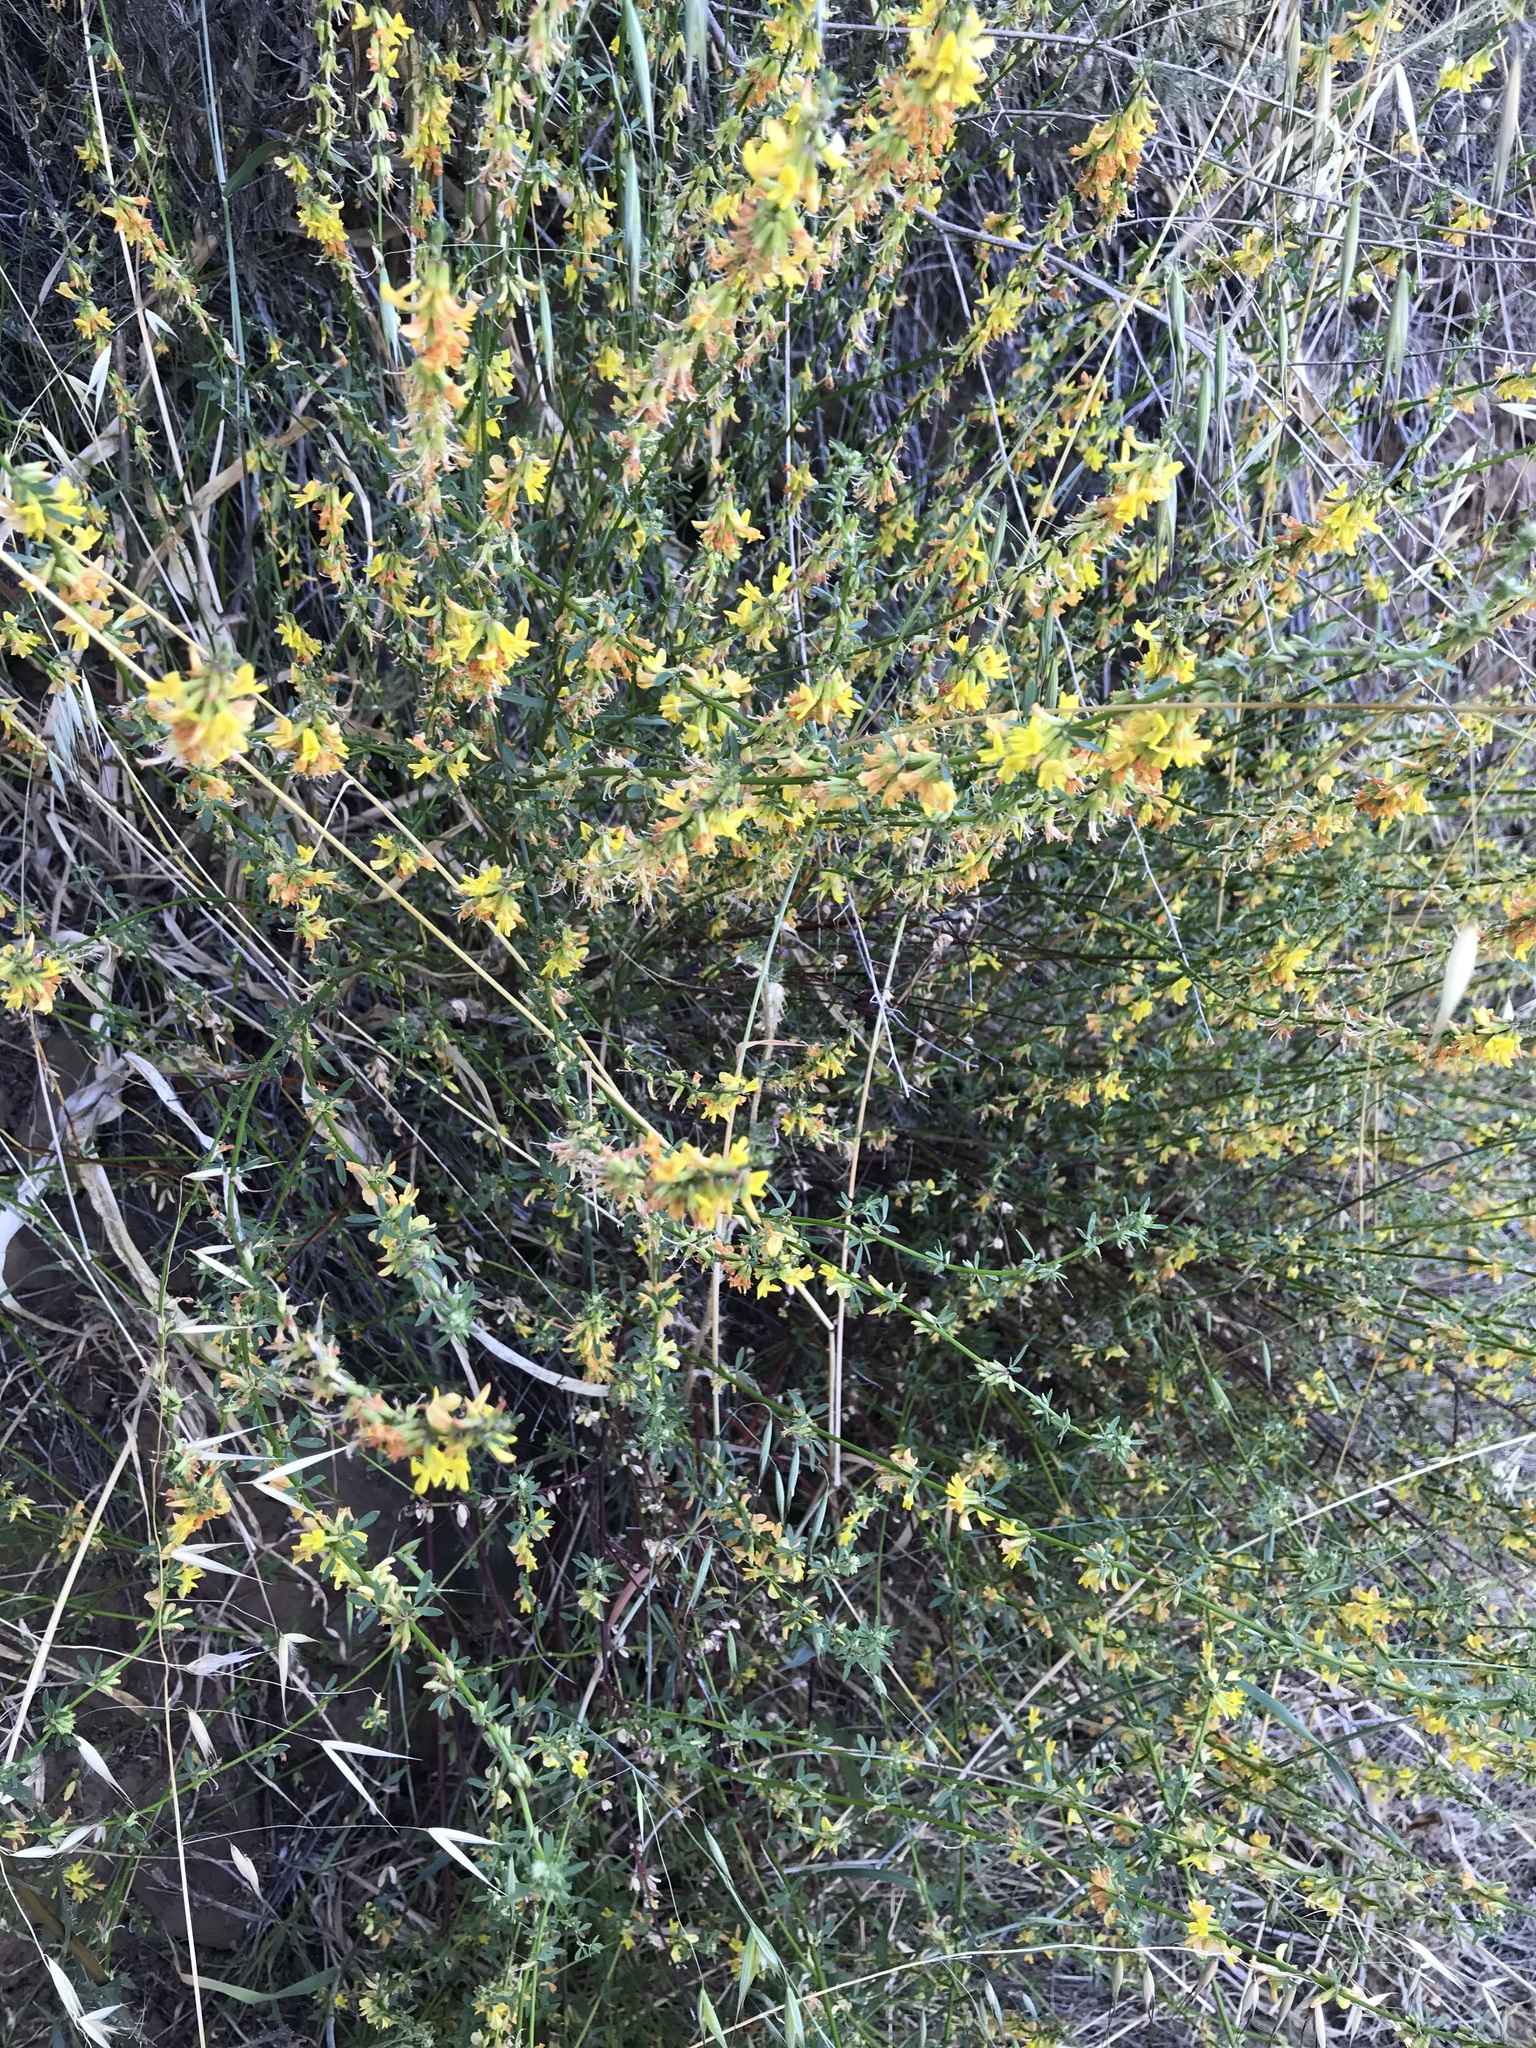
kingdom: Plantae
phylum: Tracheophyta
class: Magnoliopsida
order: Fabales
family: Fabaceae
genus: Acmispon
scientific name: Acmispon glaber
